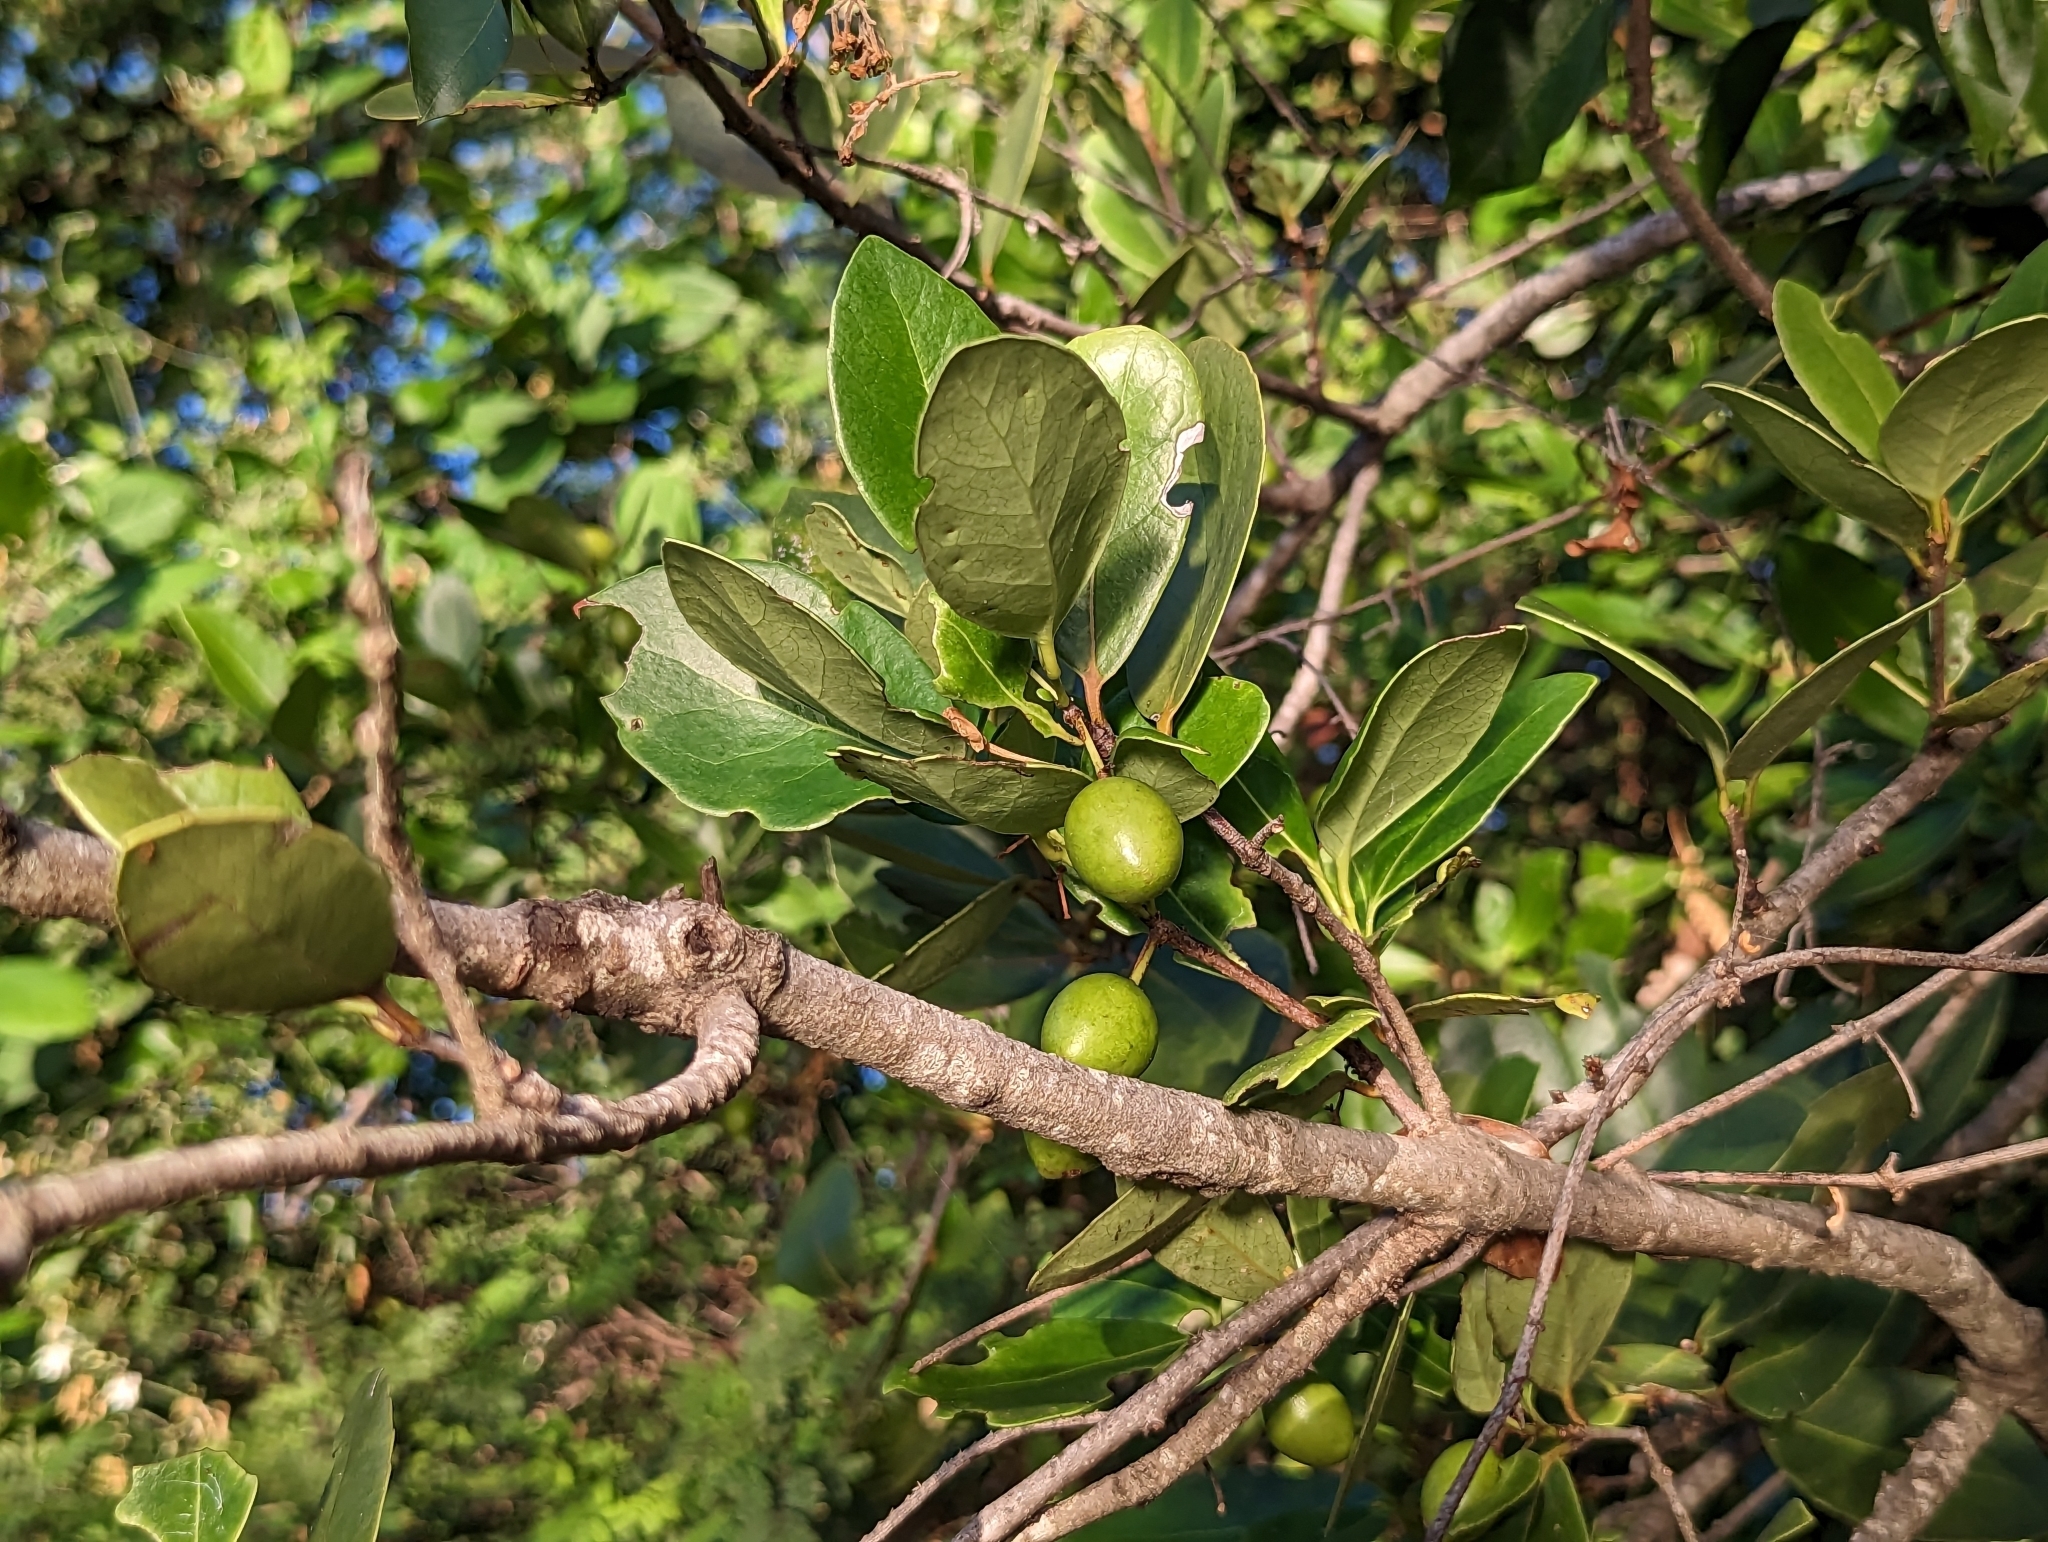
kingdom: Plantae
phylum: Tracheophyta
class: Magnoliopsida
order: Celastrales
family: Celastraceae
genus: Elaeodendron
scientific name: Elaeodendron xylocarpum
